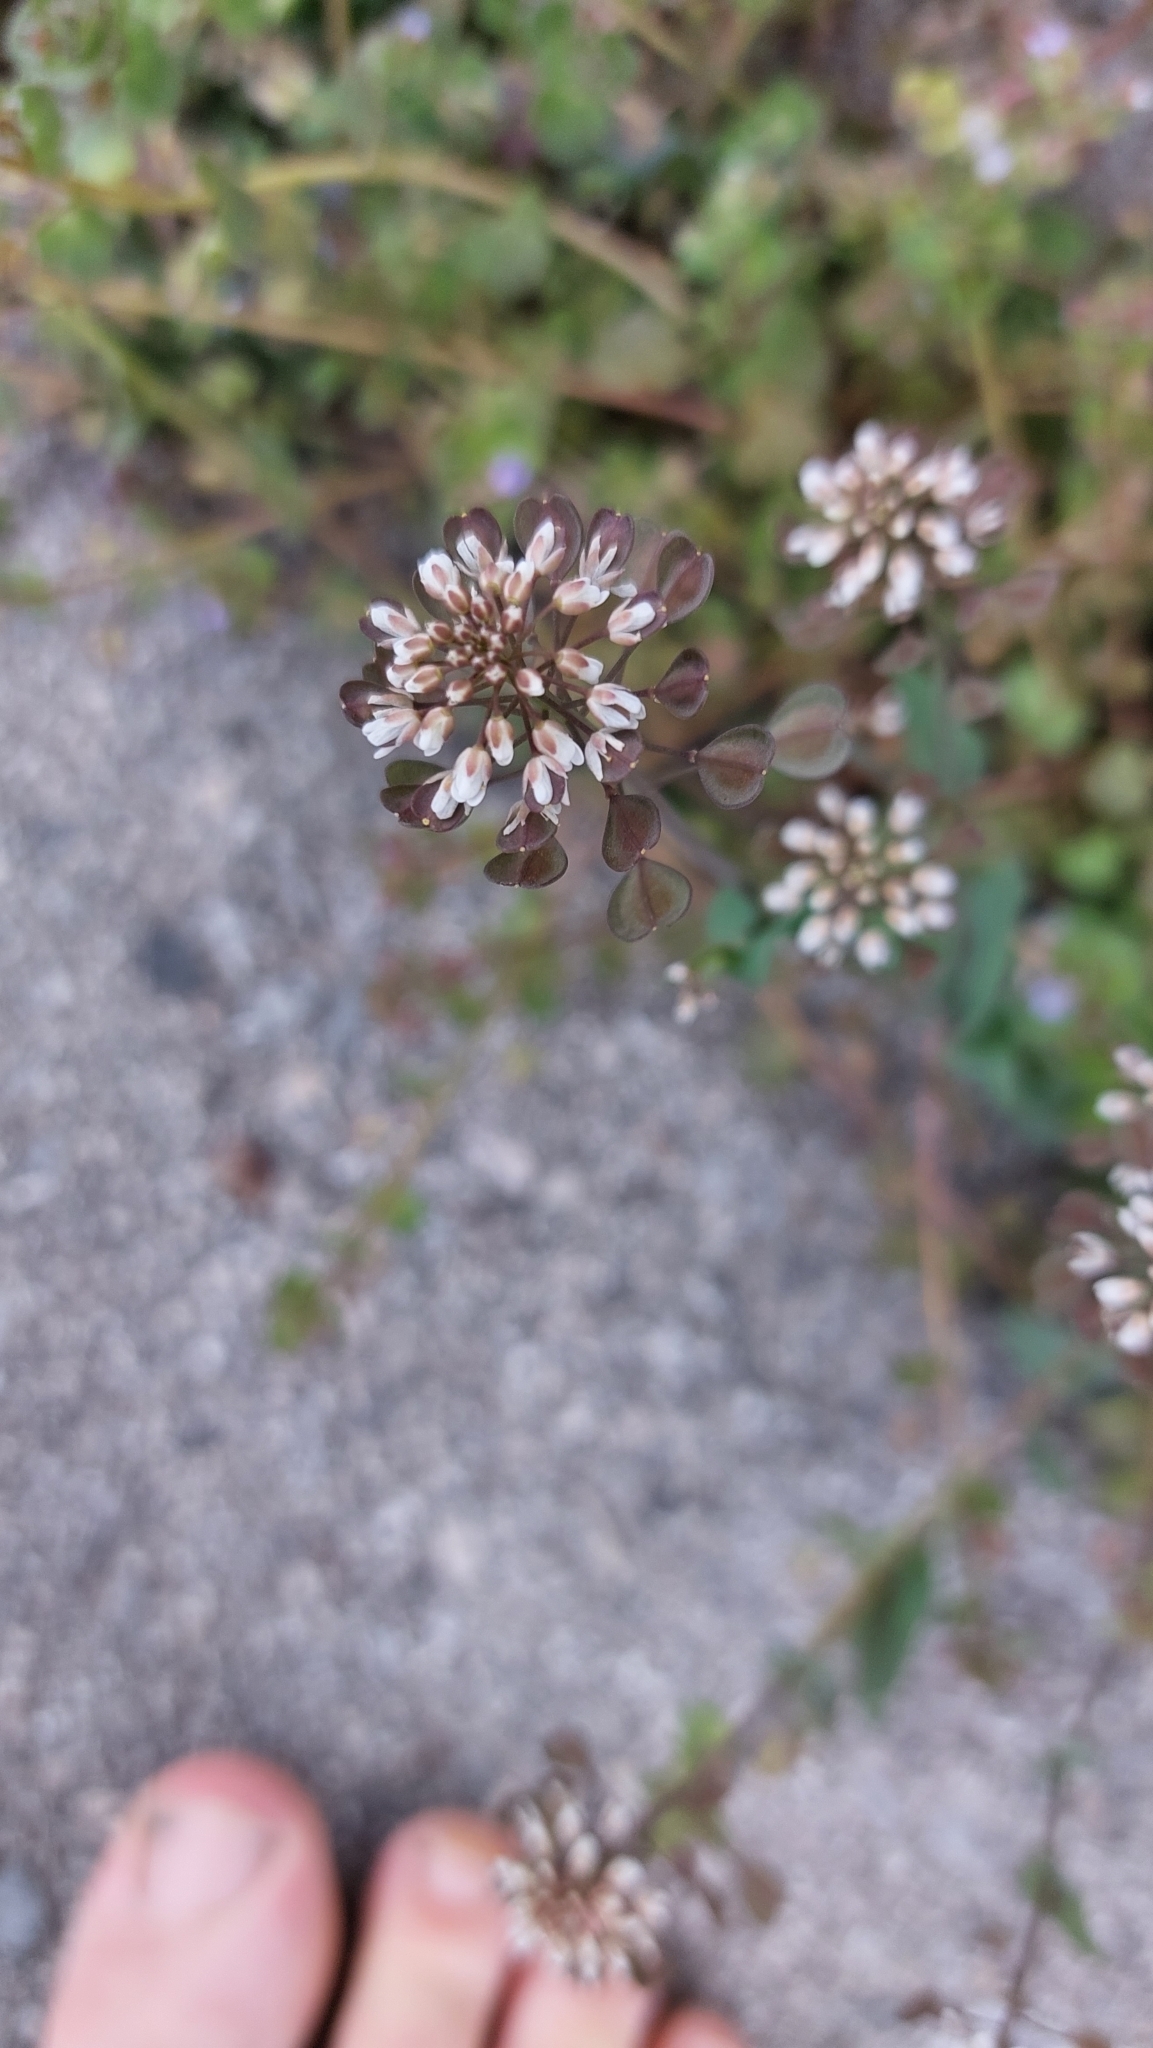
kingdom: Plantae
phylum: Tracheophyta
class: Magnoliopsida
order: Brassicales
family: Brassicaceae
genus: Noccaea
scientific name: Noccaea perfoliata
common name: Perfoliate pennycress
